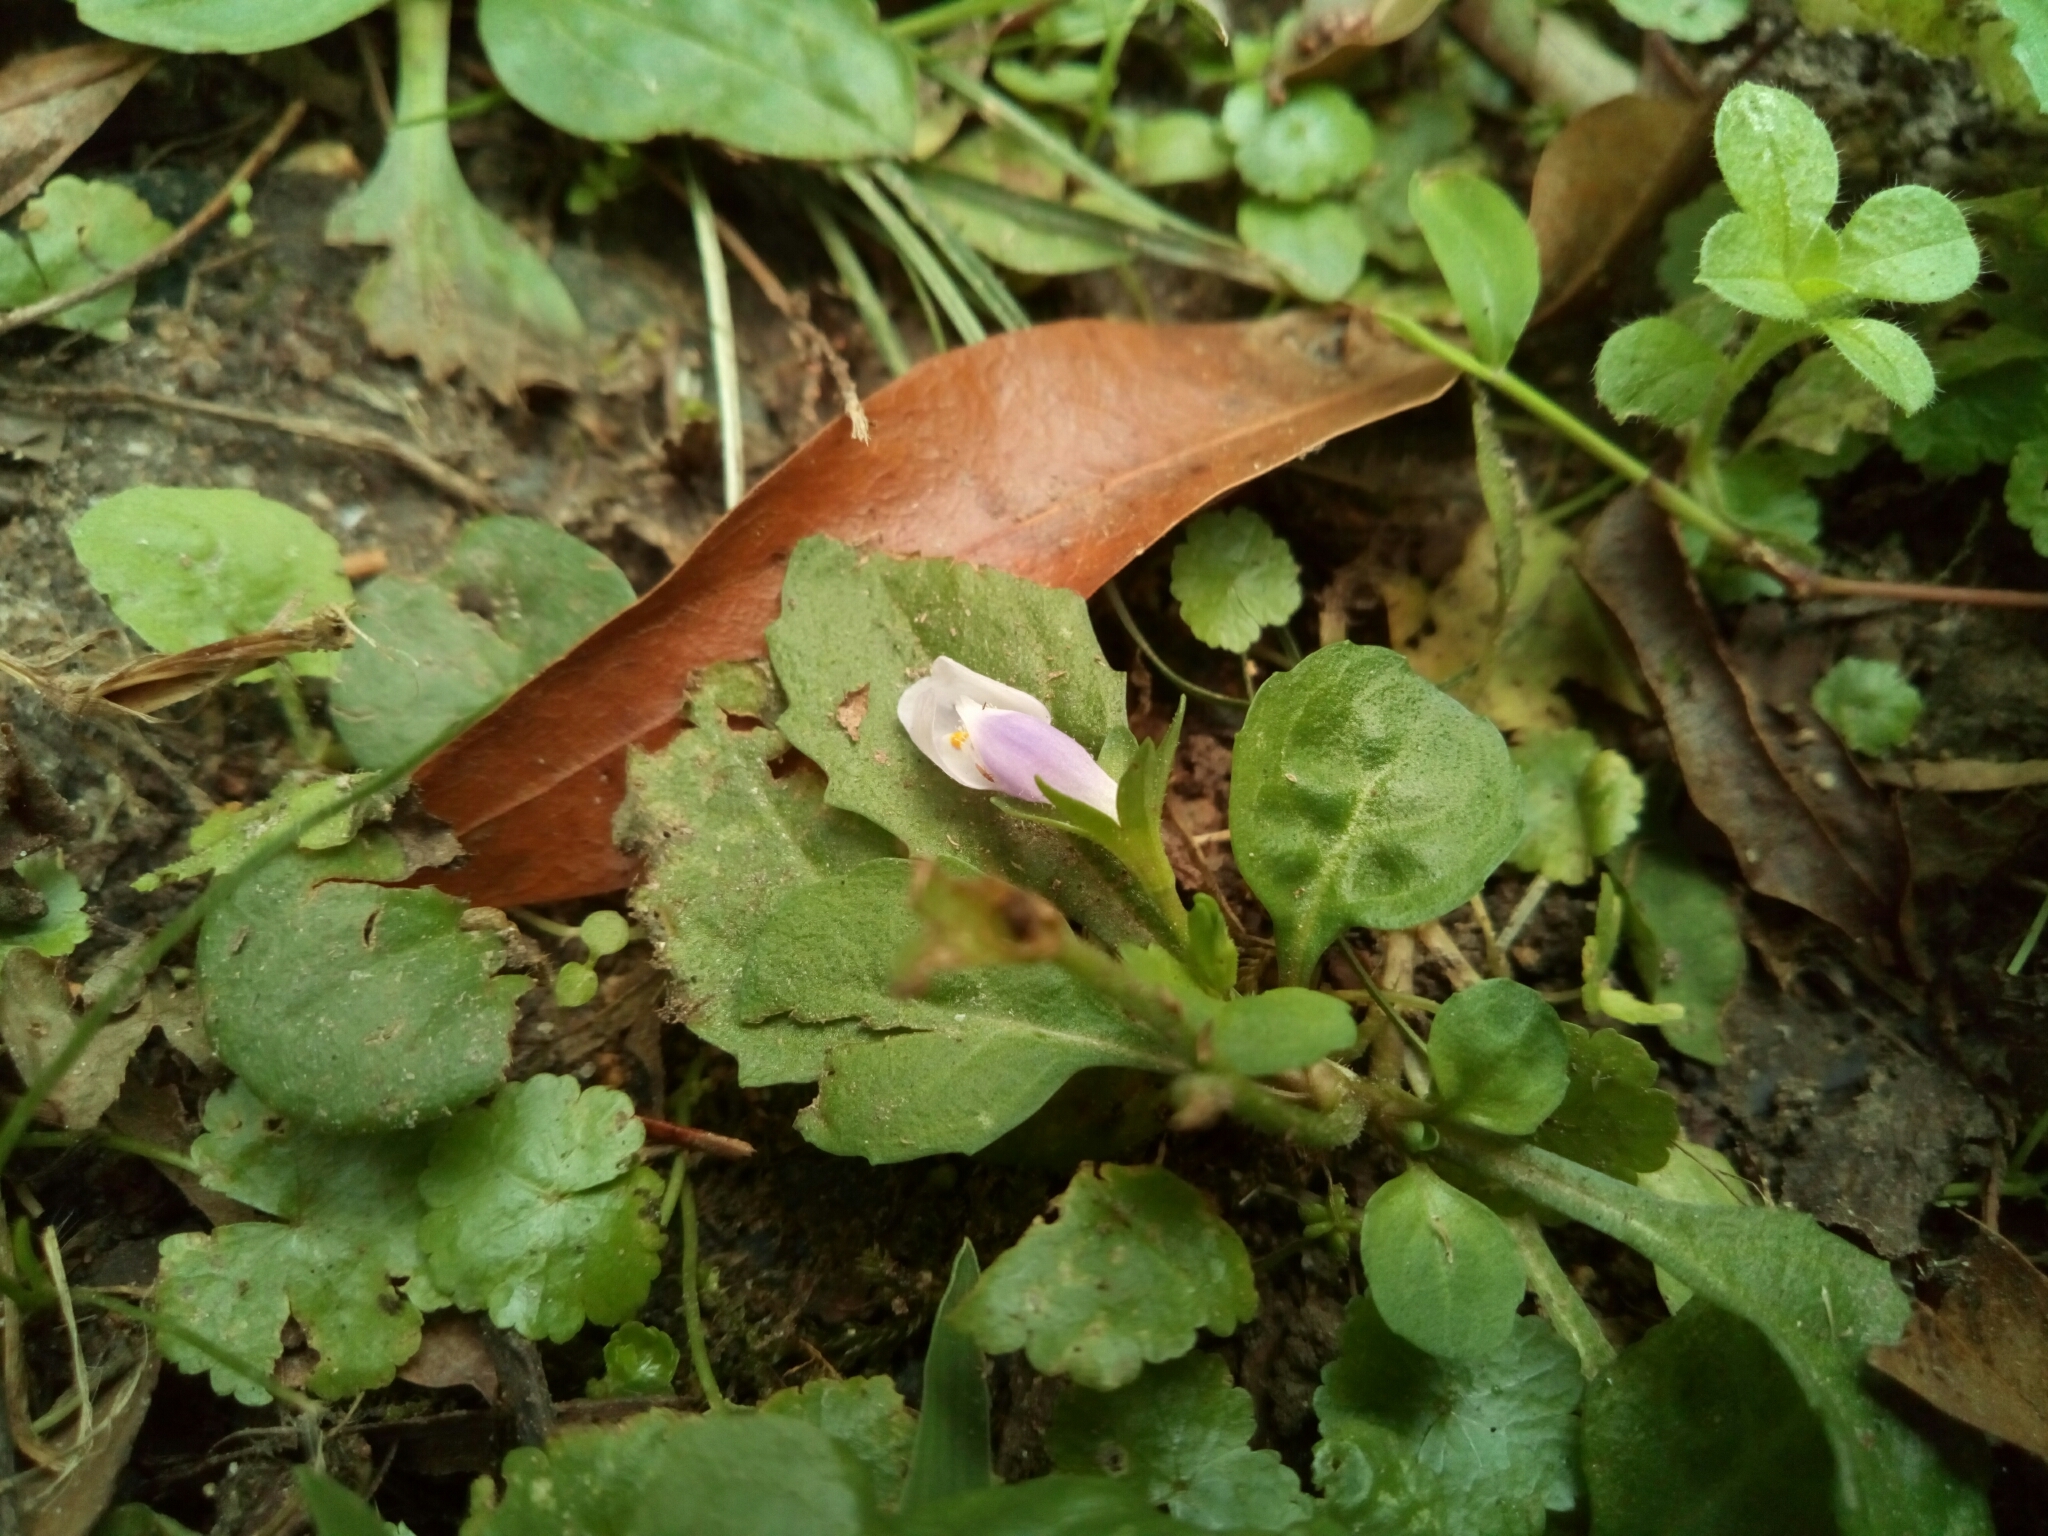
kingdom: Plantae
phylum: Tracheophyta
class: Magnoliopsida
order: Lamiales
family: Mazaceae
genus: Mazus
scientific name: Mazus pumilus
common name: Japanese mazus
